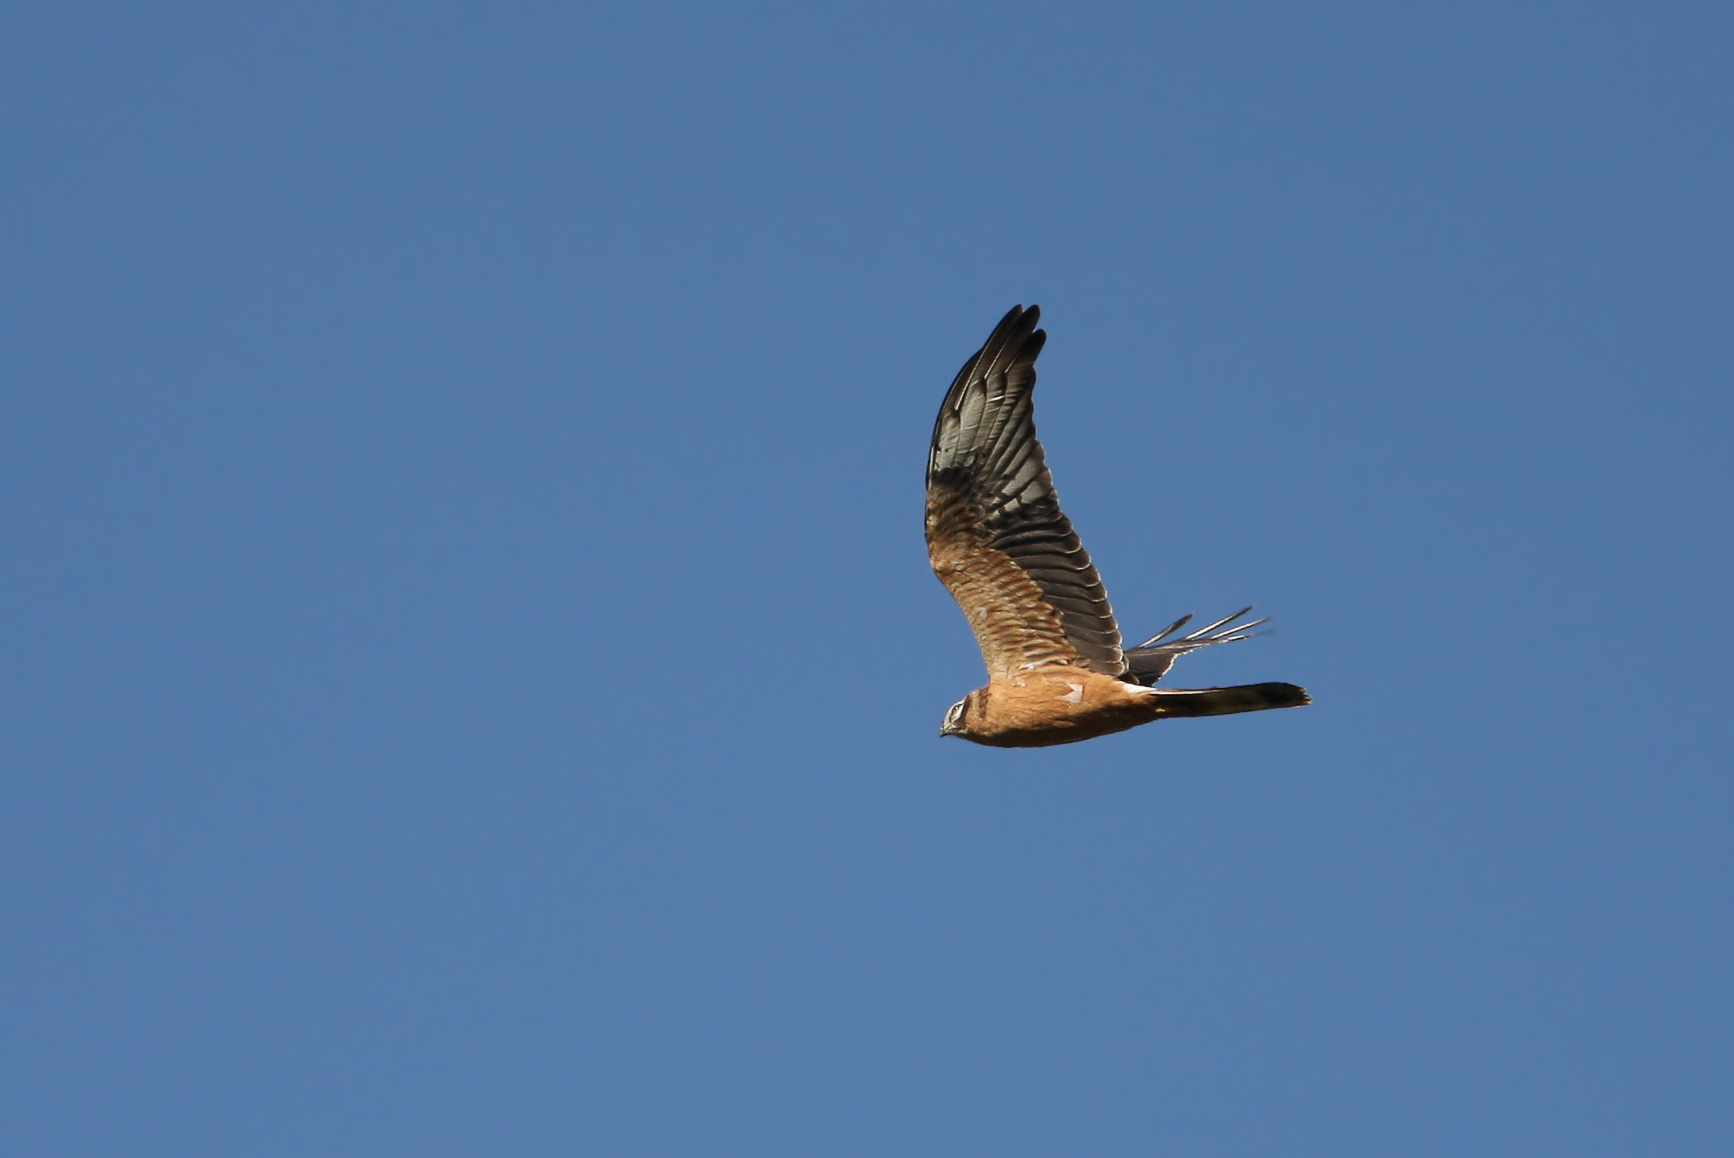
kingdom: Animalia
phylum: Chordata
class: Aves
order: Accipitriformes
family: Accipitridae
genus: Circus
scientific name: Circus macrourus
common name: Pallid harrier
